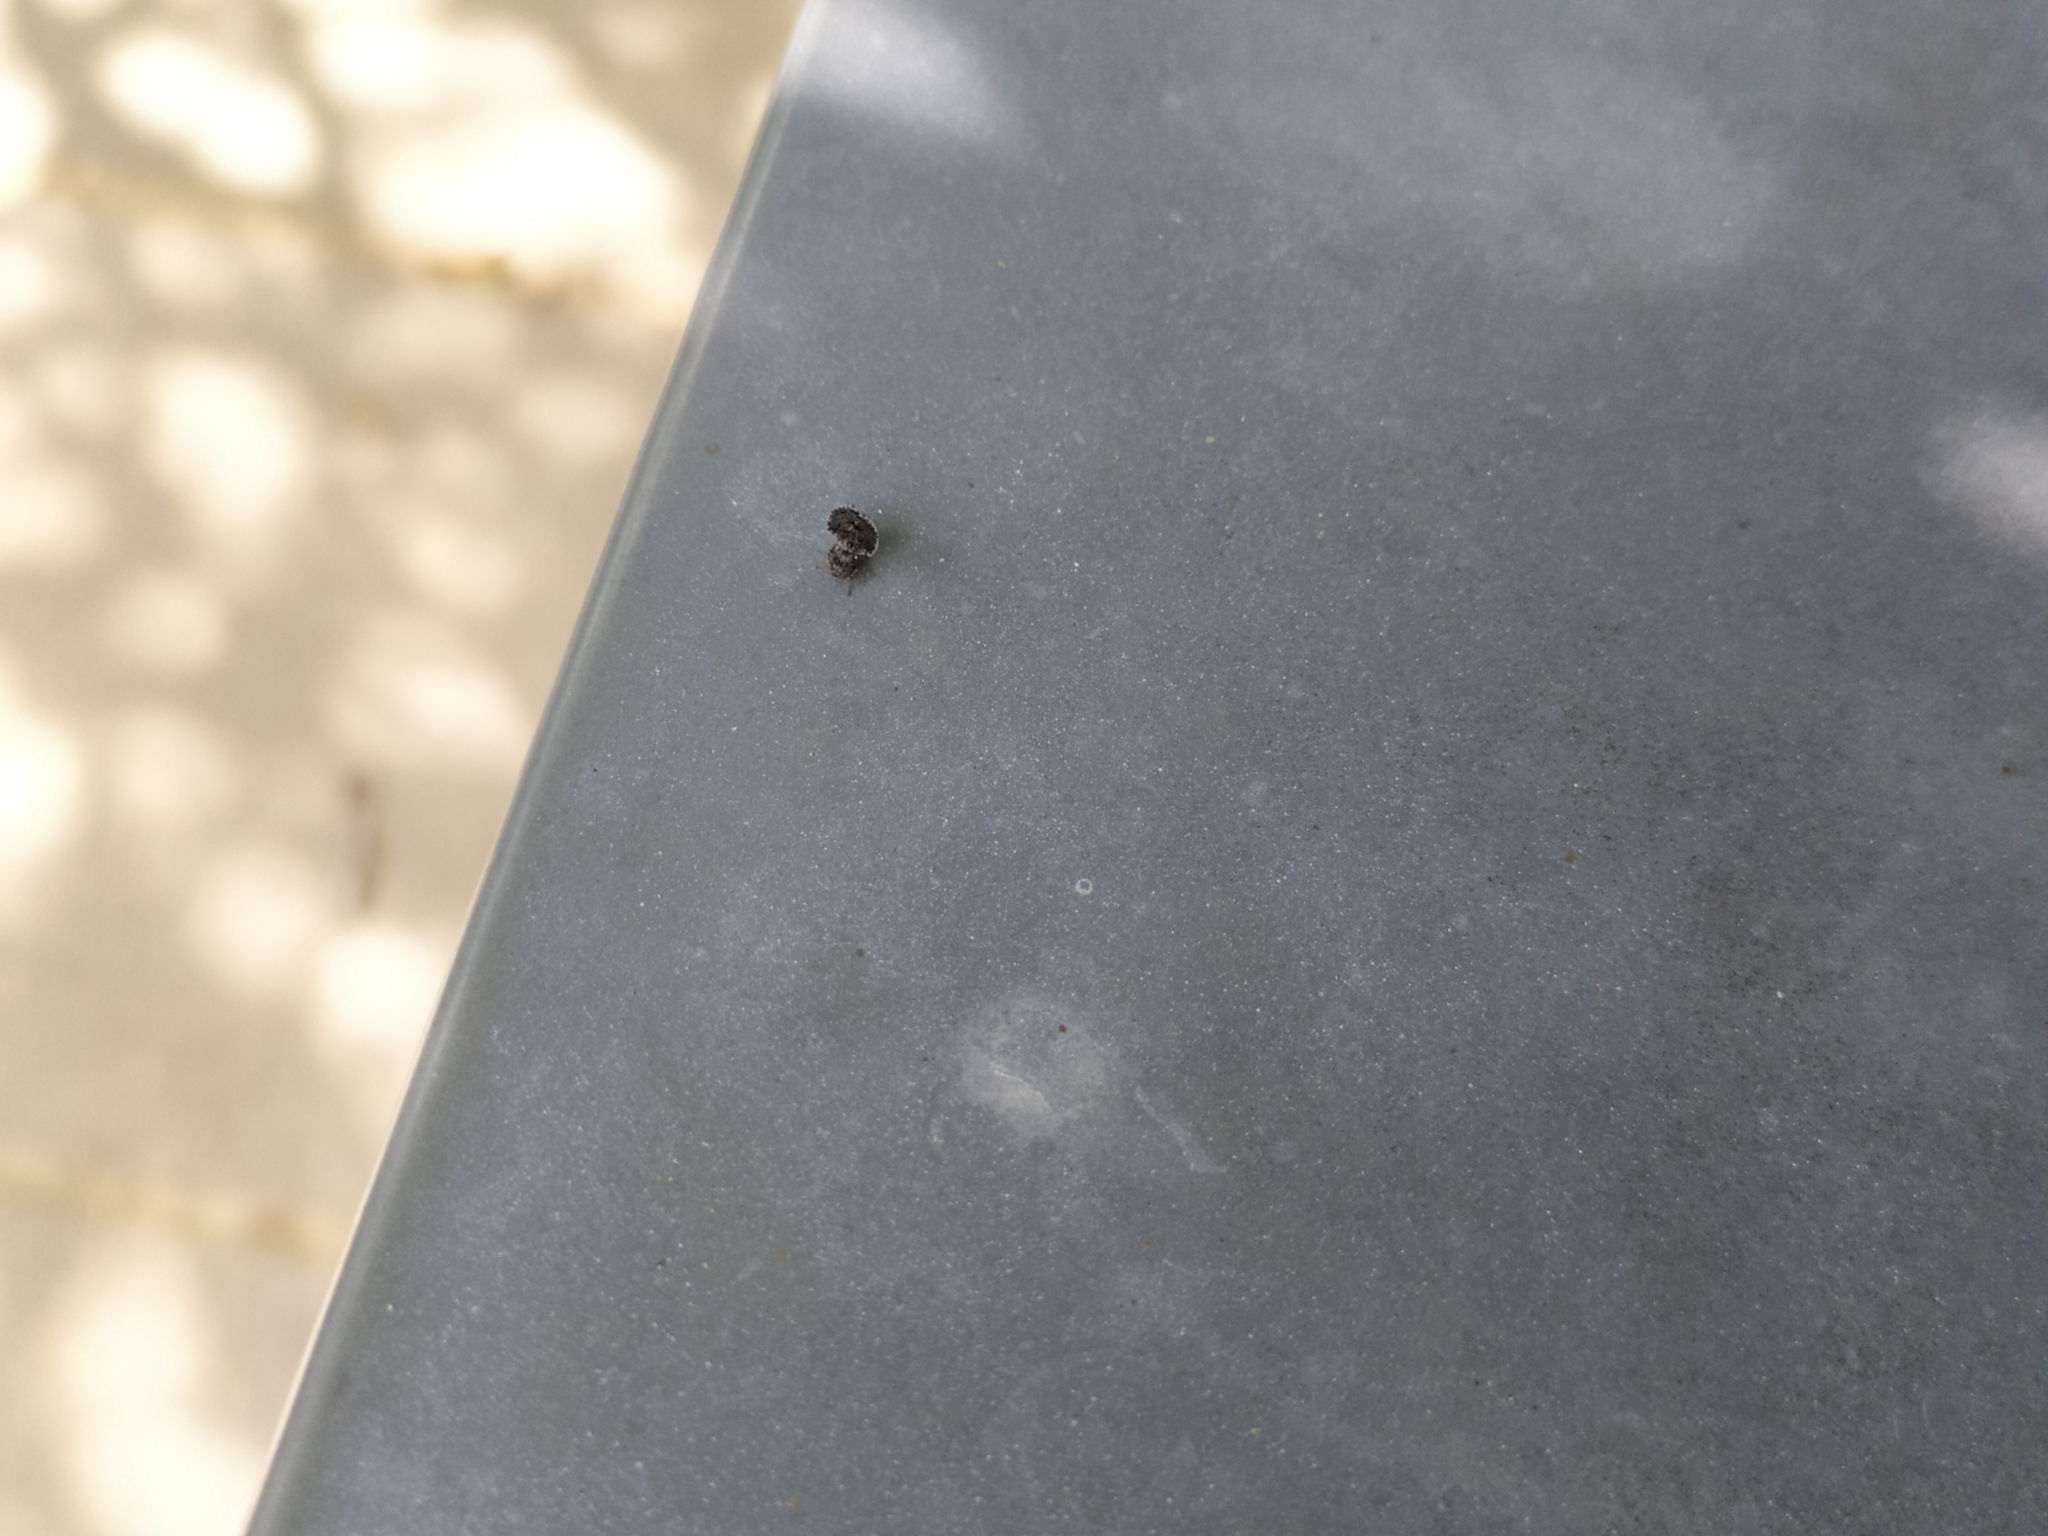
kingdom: Animalia
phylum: Arthropoda
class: Insecta
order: Diptera
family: Ulidiidae
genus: Callopistromyia
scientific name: Callopistromyia annulipes
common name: Peacock fly
